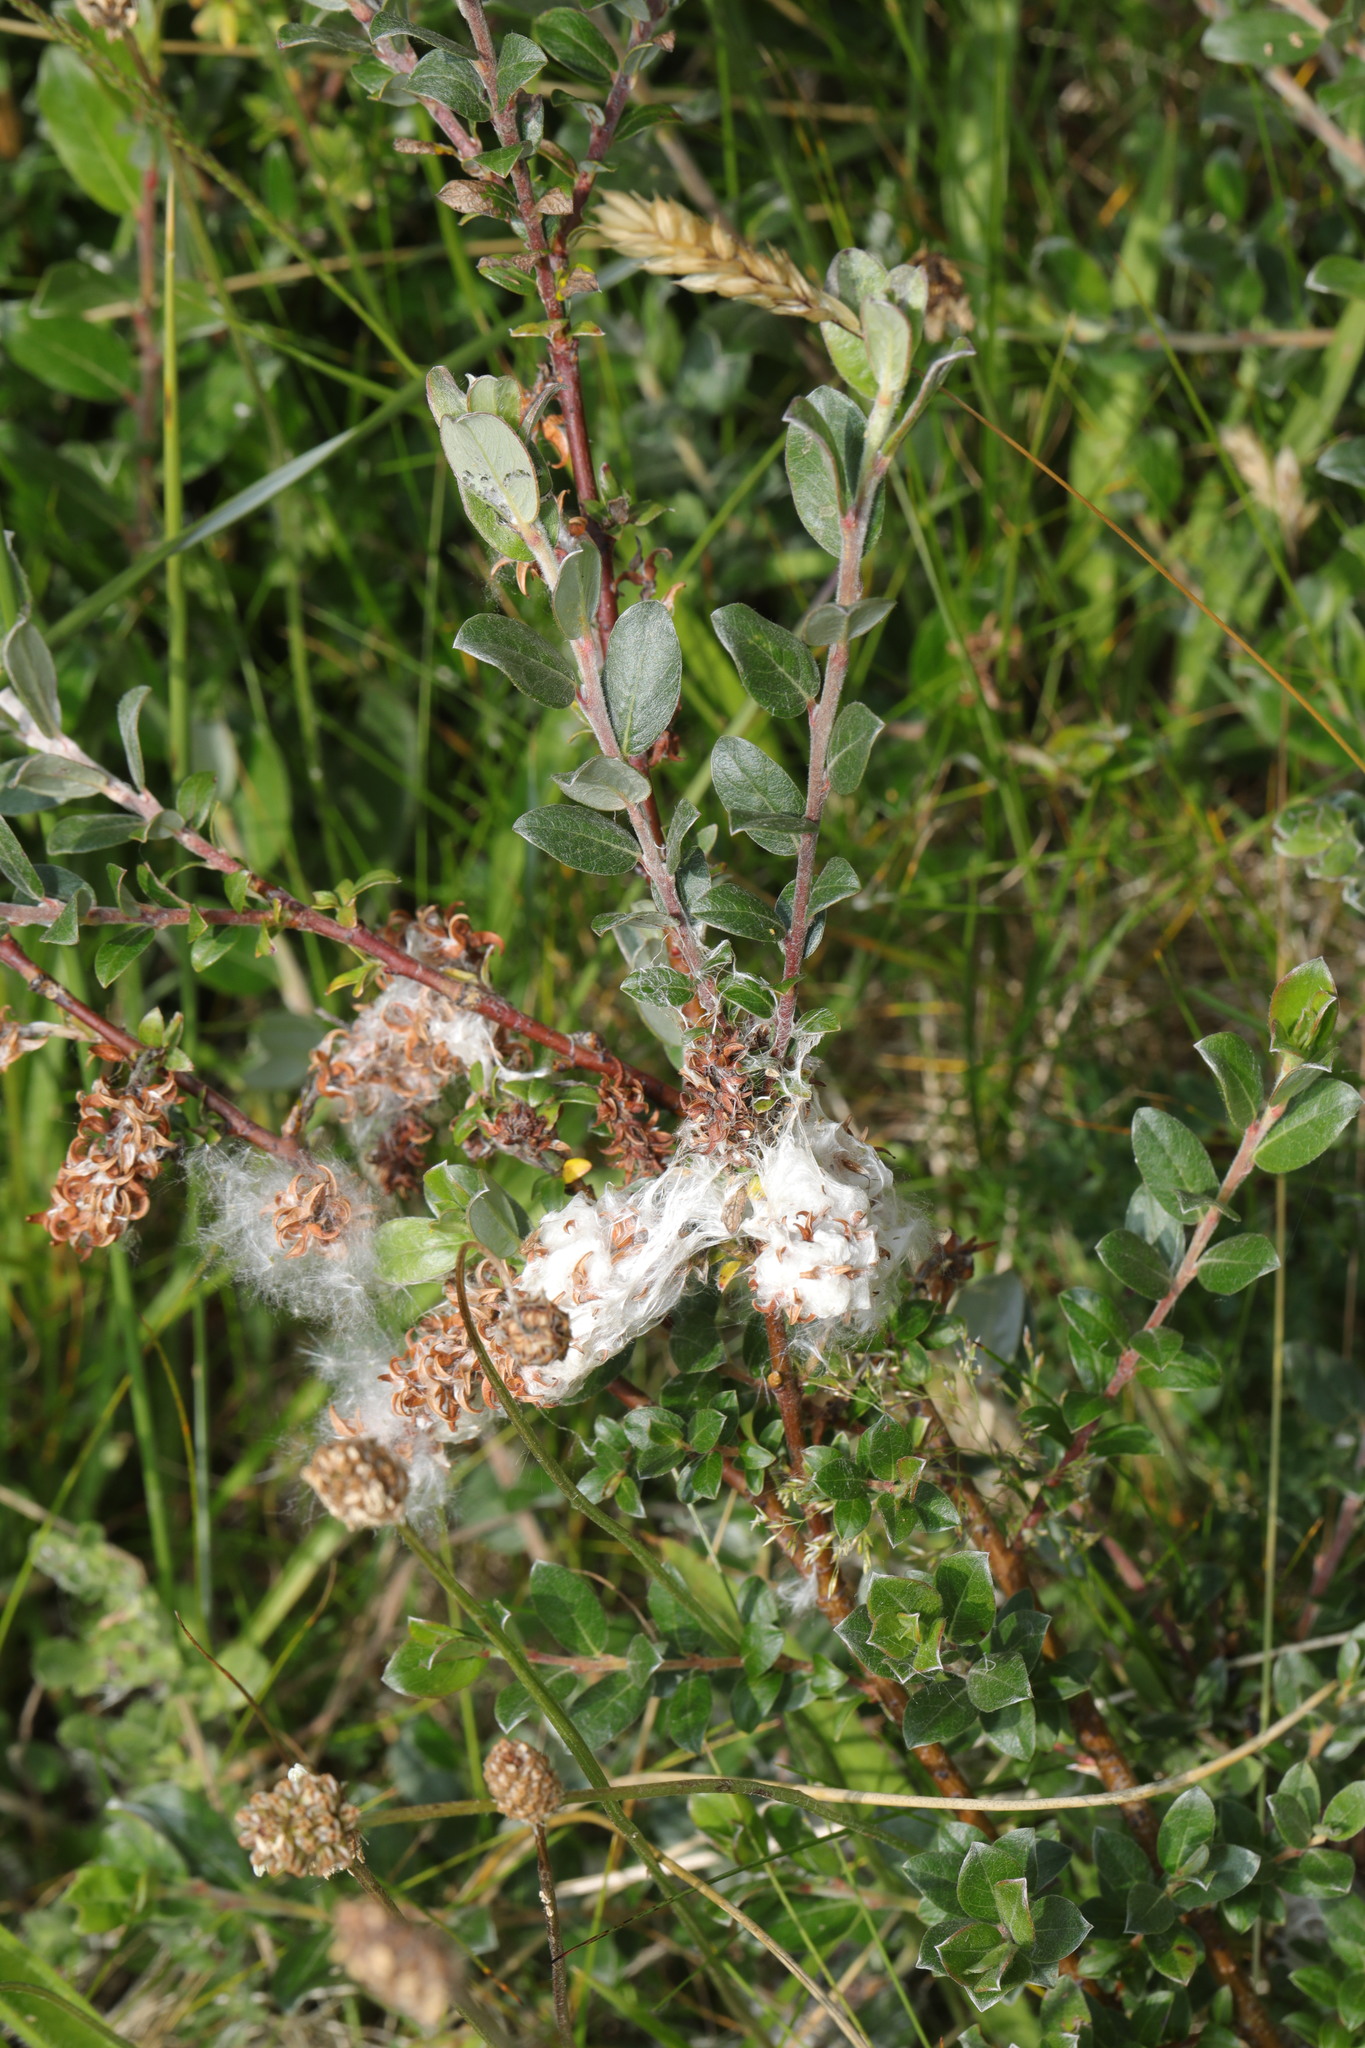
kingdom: Plantae
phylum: Tracheophyta
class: Magnoliopsida
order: Malpighiales
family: Salicaceae
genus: Salix
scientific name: Salix repens
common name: Creeping willow
